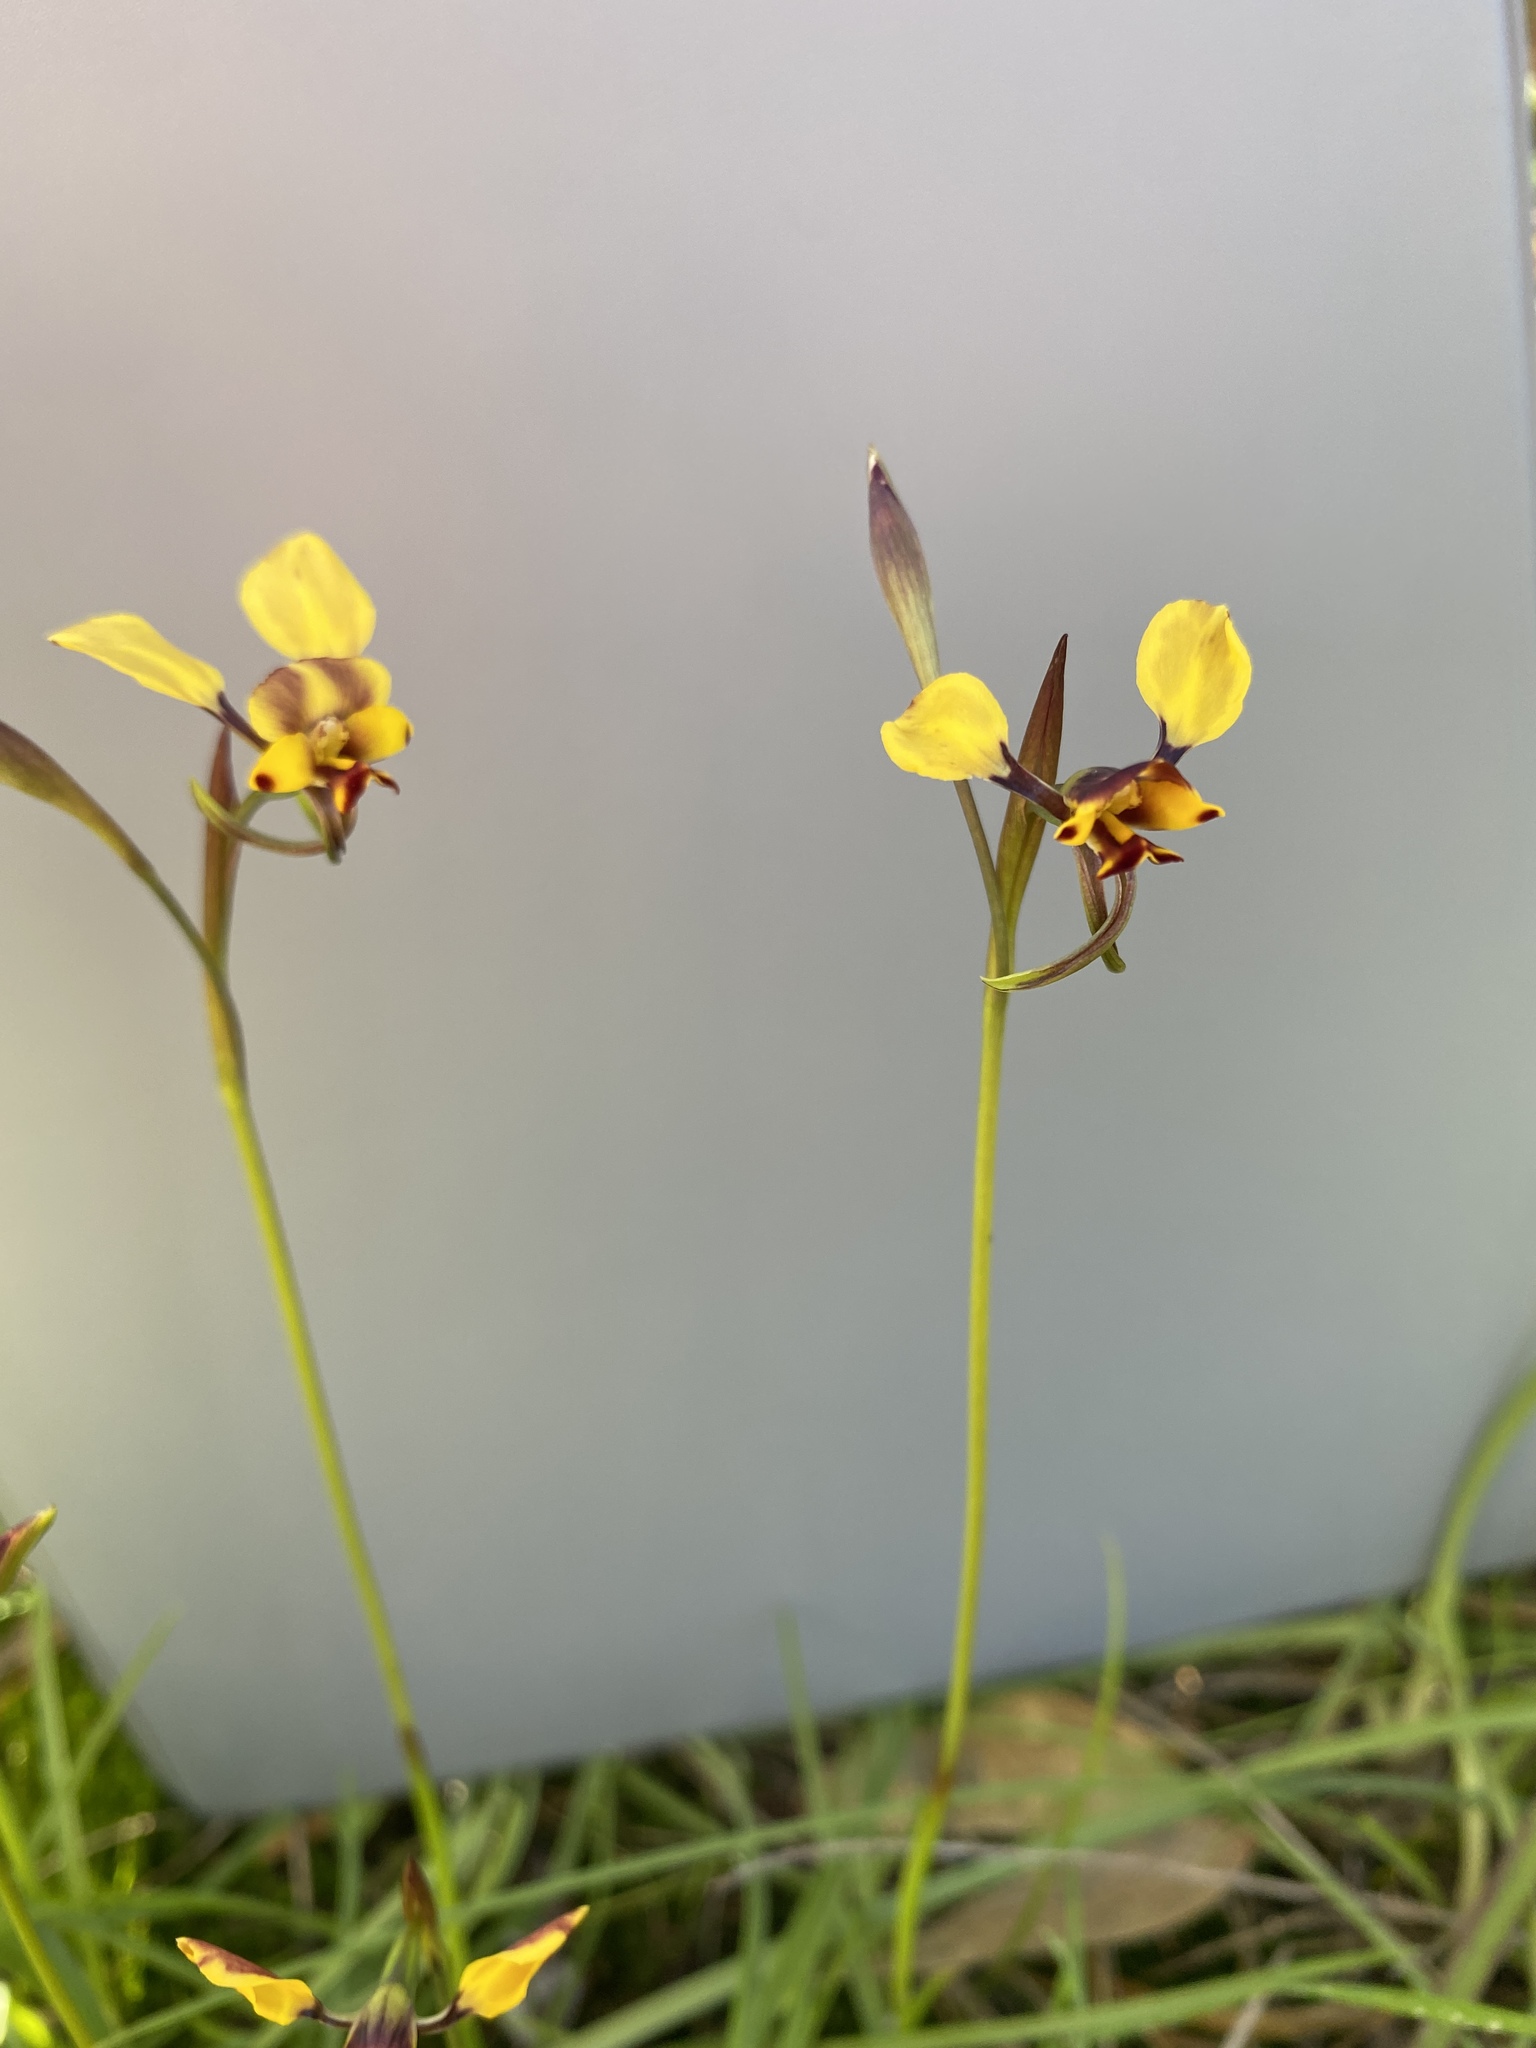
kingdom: Plantae
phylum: Tracheophyta
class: Liliopsida
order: Asparagales
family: Orchidaceae
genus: Diuris
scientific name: Diuris hazeliae
